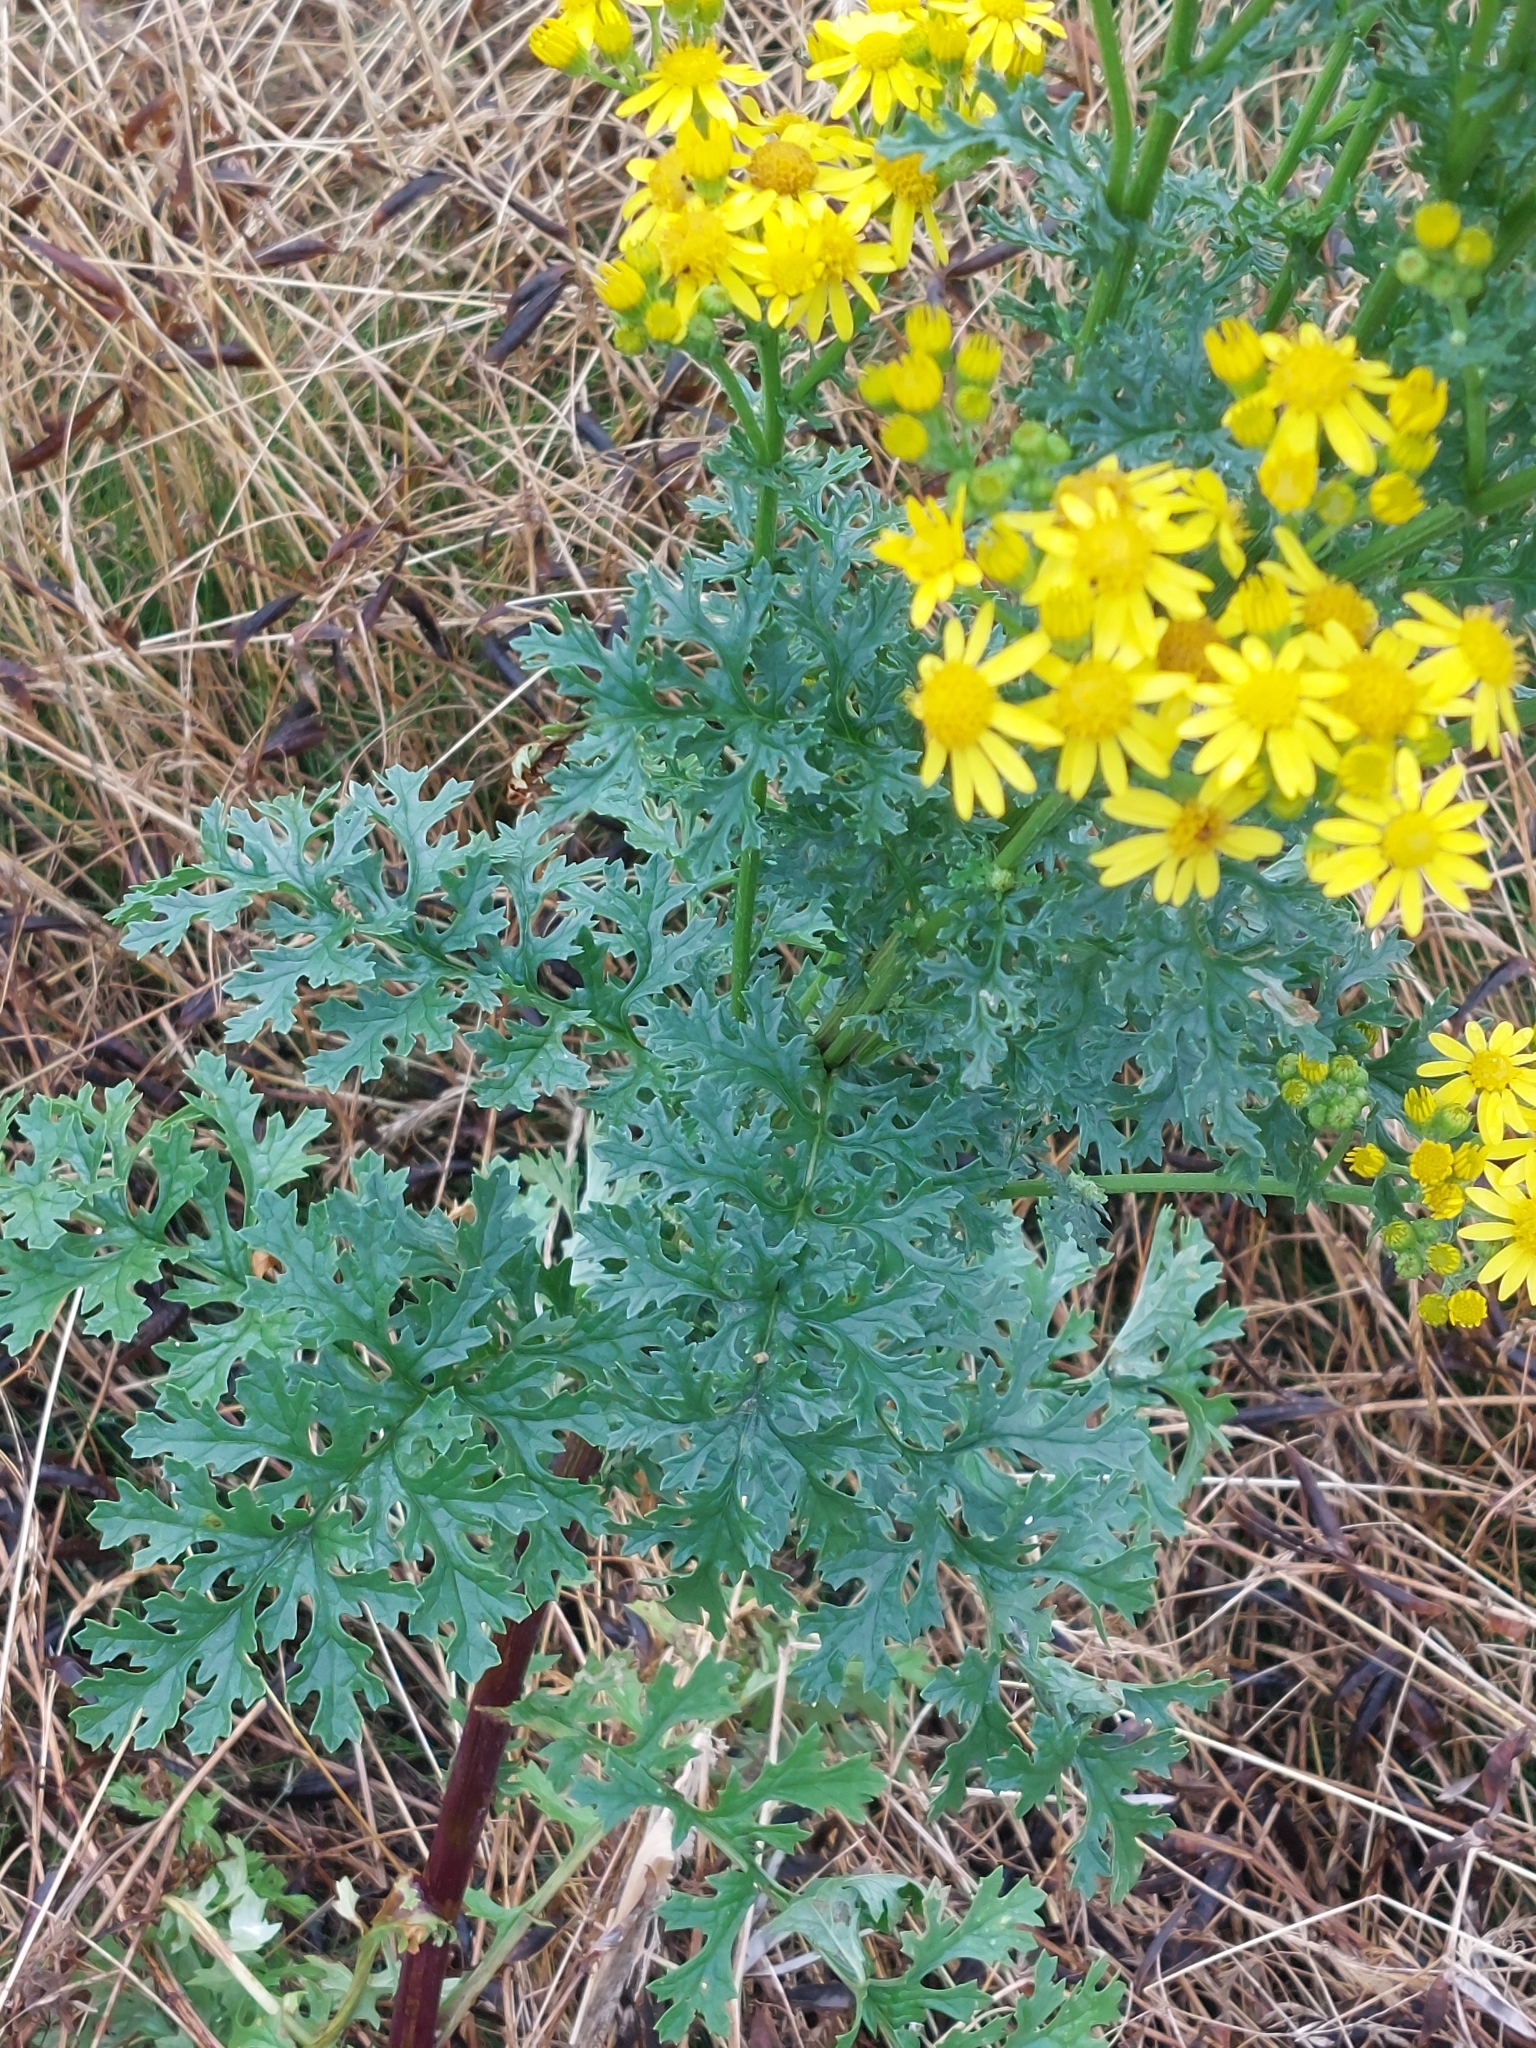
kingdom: Plantae
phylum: Tracheophyta
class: Magnoliopsida
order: Asterales
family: Asteraceae
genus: Jacobaea
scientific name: Jacobaea vulgaris
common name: Stinking willie
